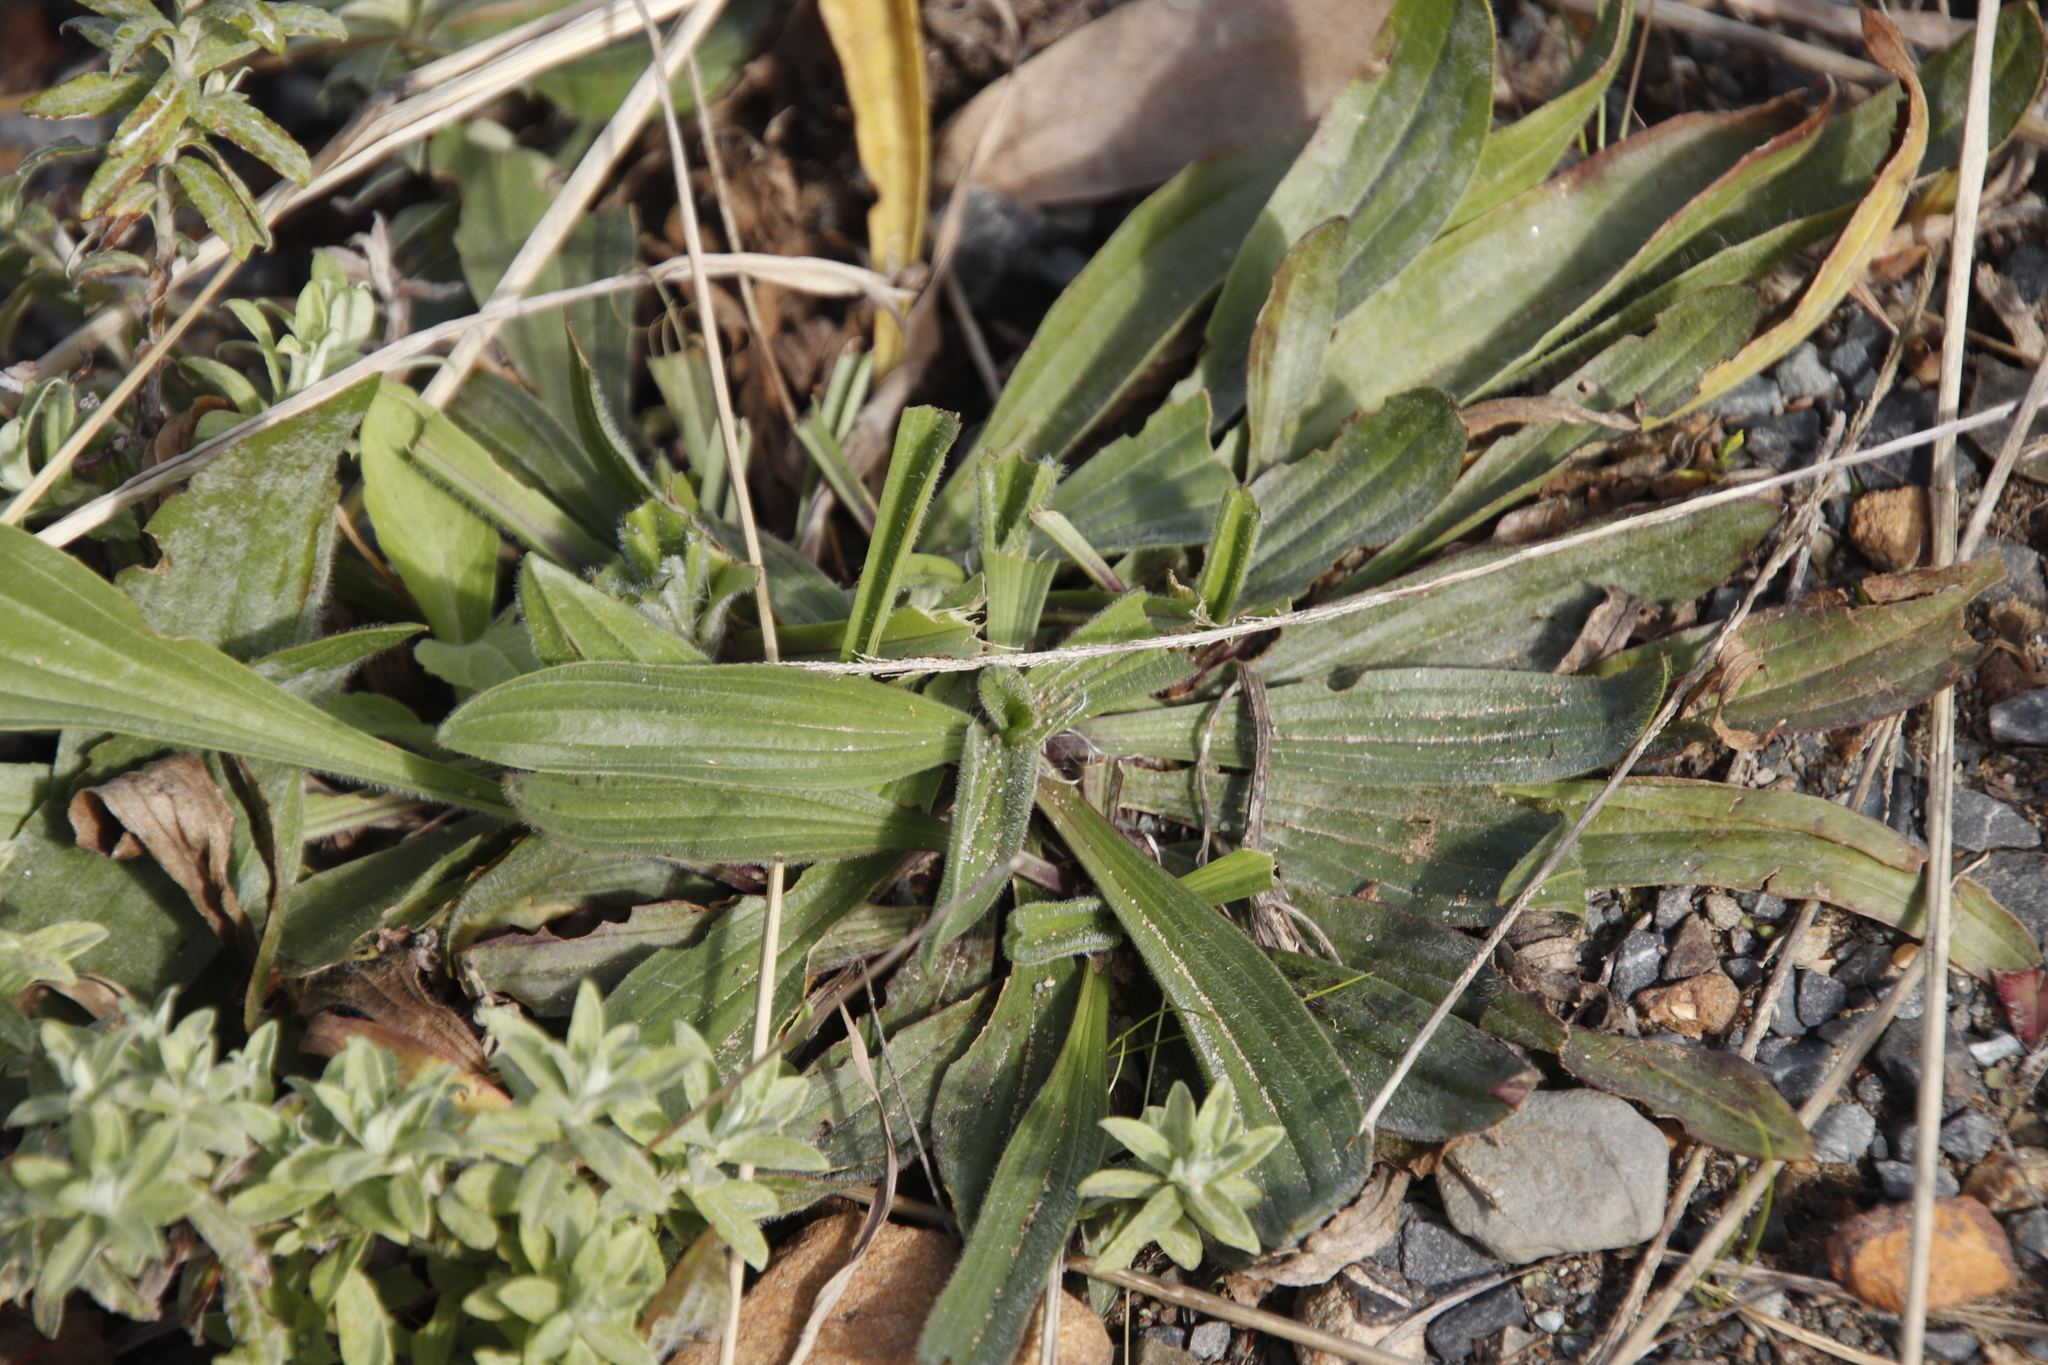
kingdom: Plantae
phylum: Tracheophyta
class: Magnoliopsida
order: Lamiales
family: Plantaginaceae
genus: Plantago
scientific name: Plantago lanceolata
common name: Ribwort plantain
